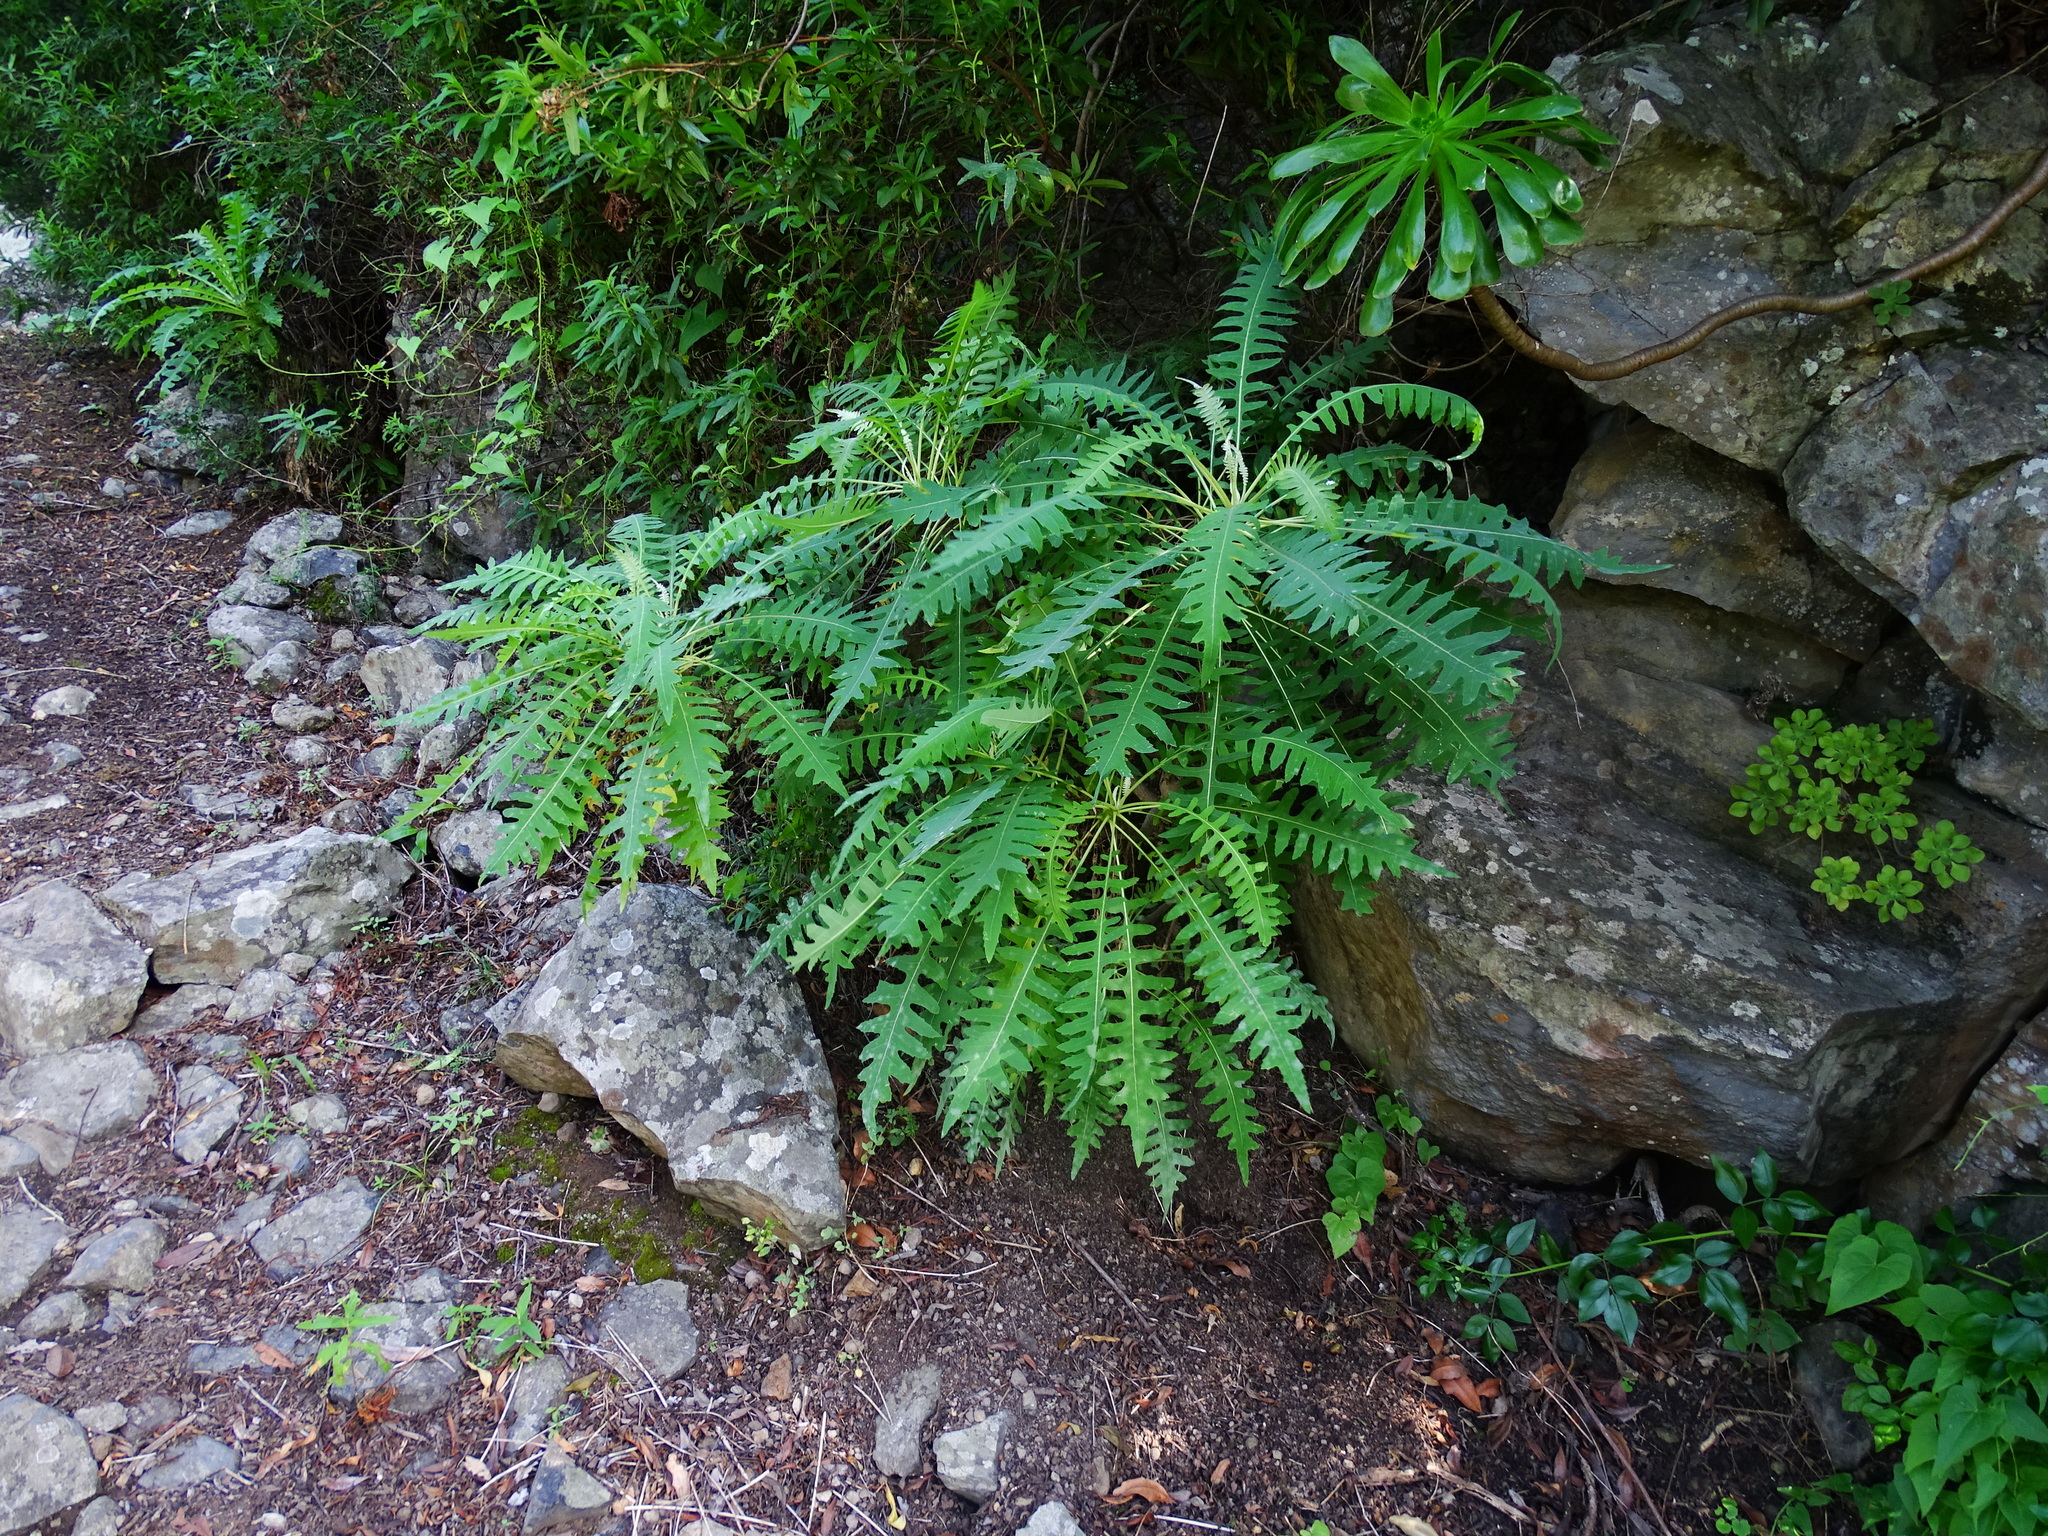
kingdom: Plantae
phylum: Tracheophyta
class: Magnoliopsida
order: Asterales
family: Asteraceae
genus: Sonchus
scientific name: Sonchus palmensis
